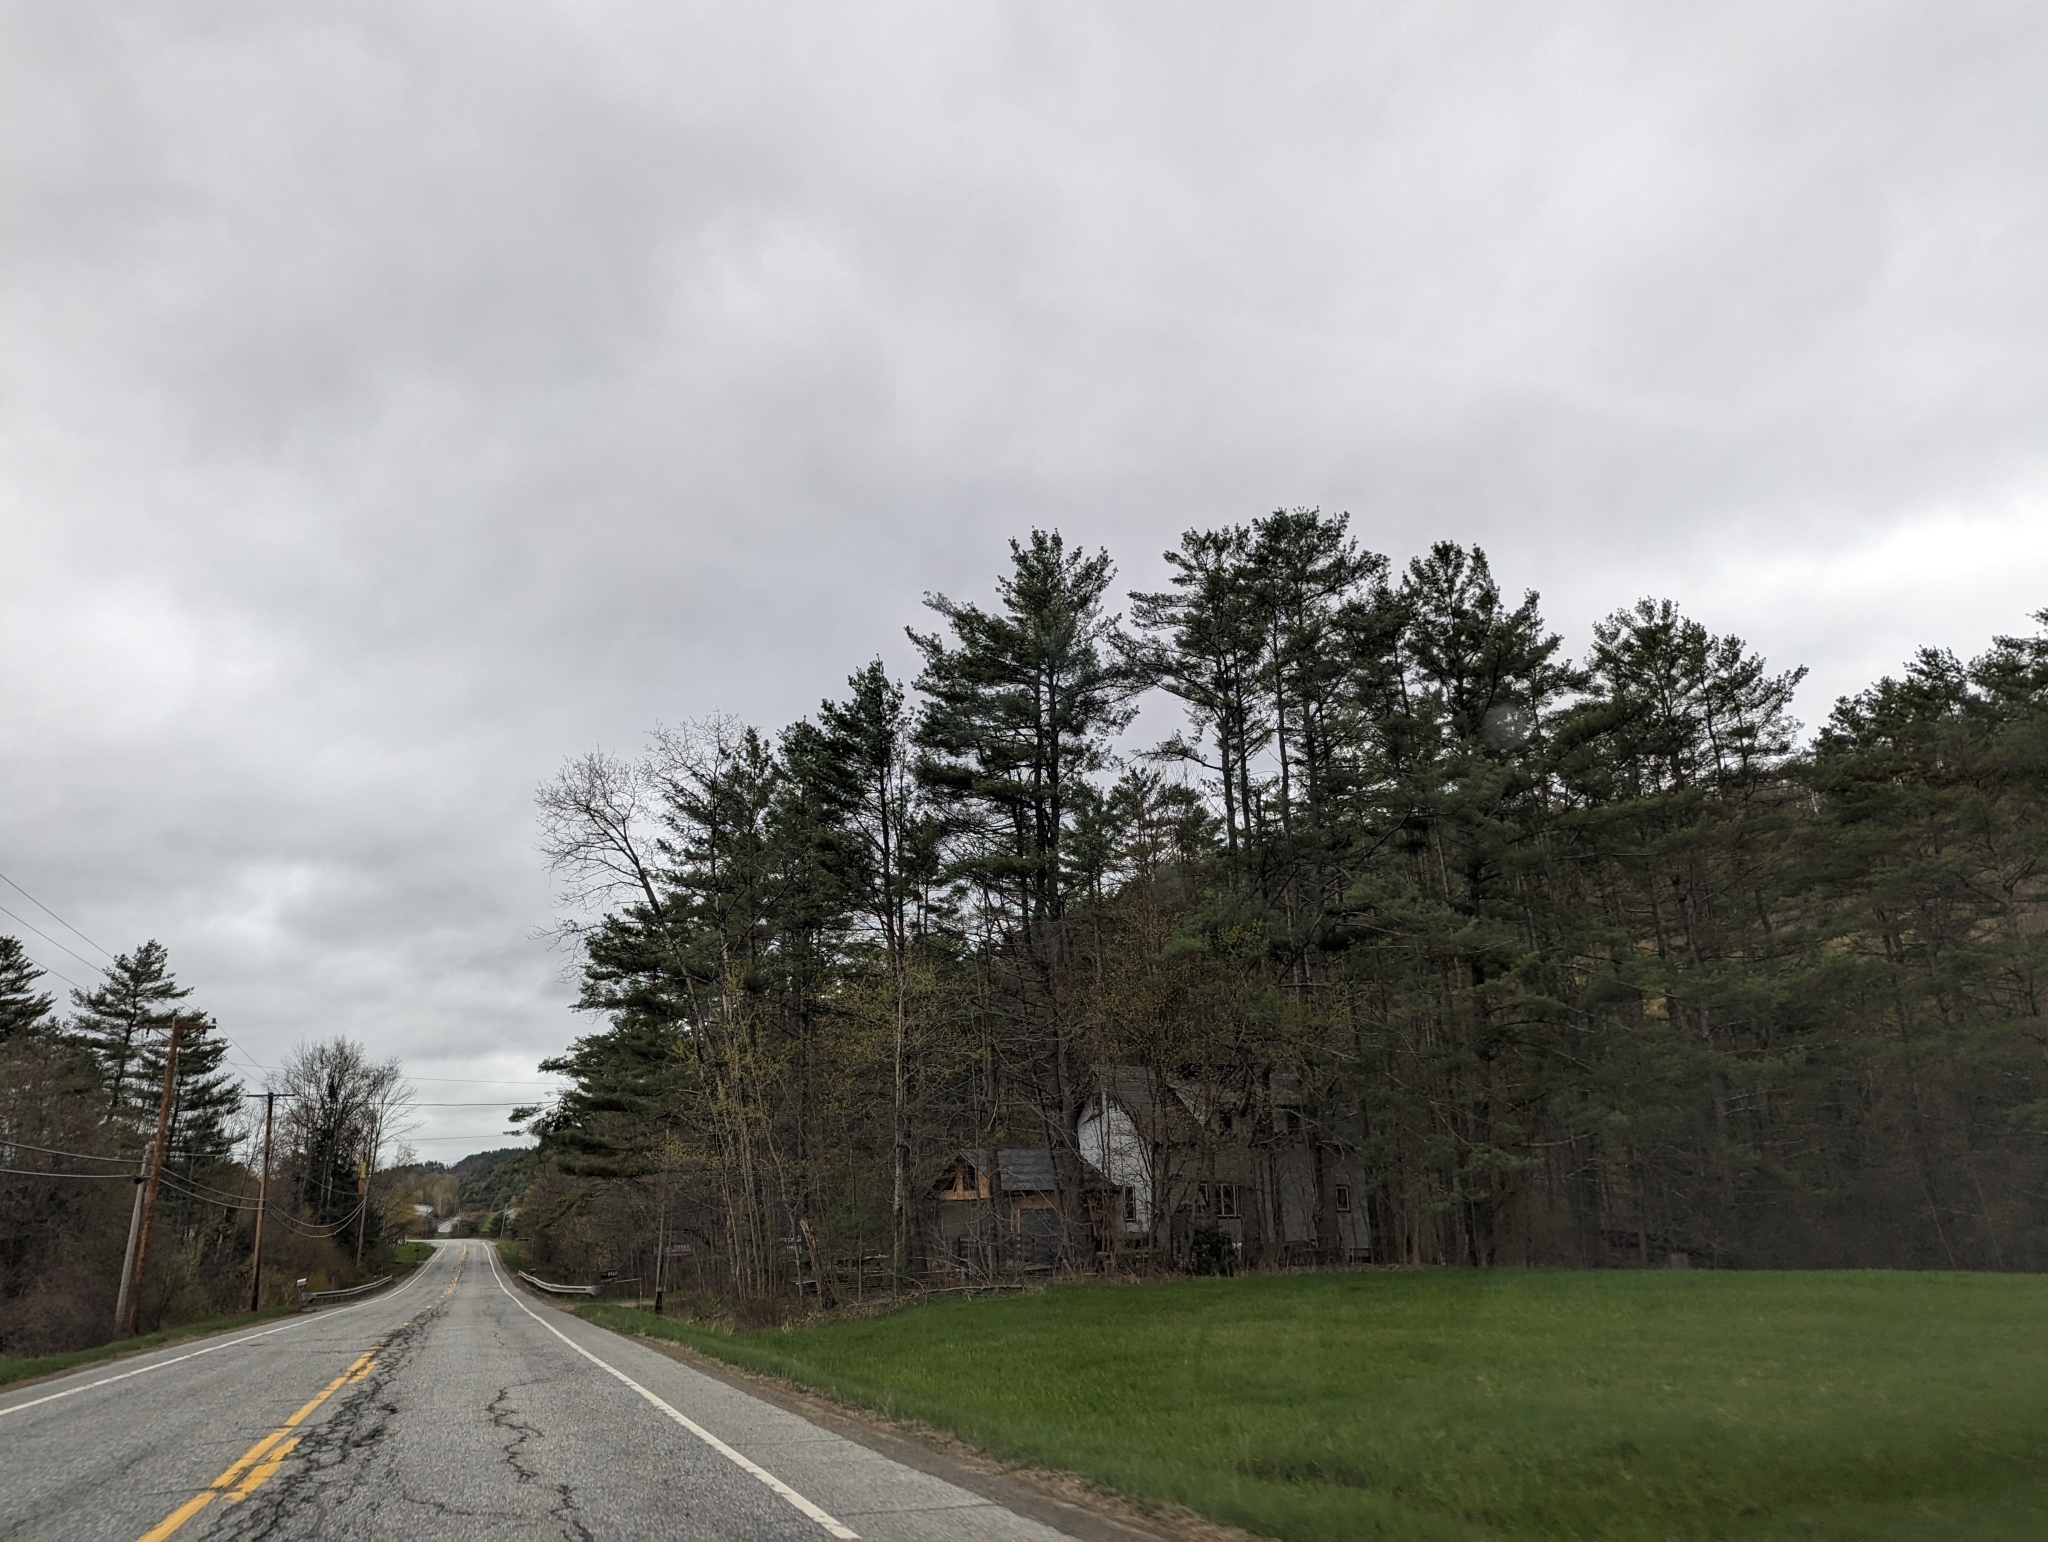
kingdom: Plantae
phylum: Tracheophyta
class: Pinopsida
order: Pinales
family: Pinaceae
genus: Pinus
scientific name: Pinus strobus
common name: Weymouth pine
